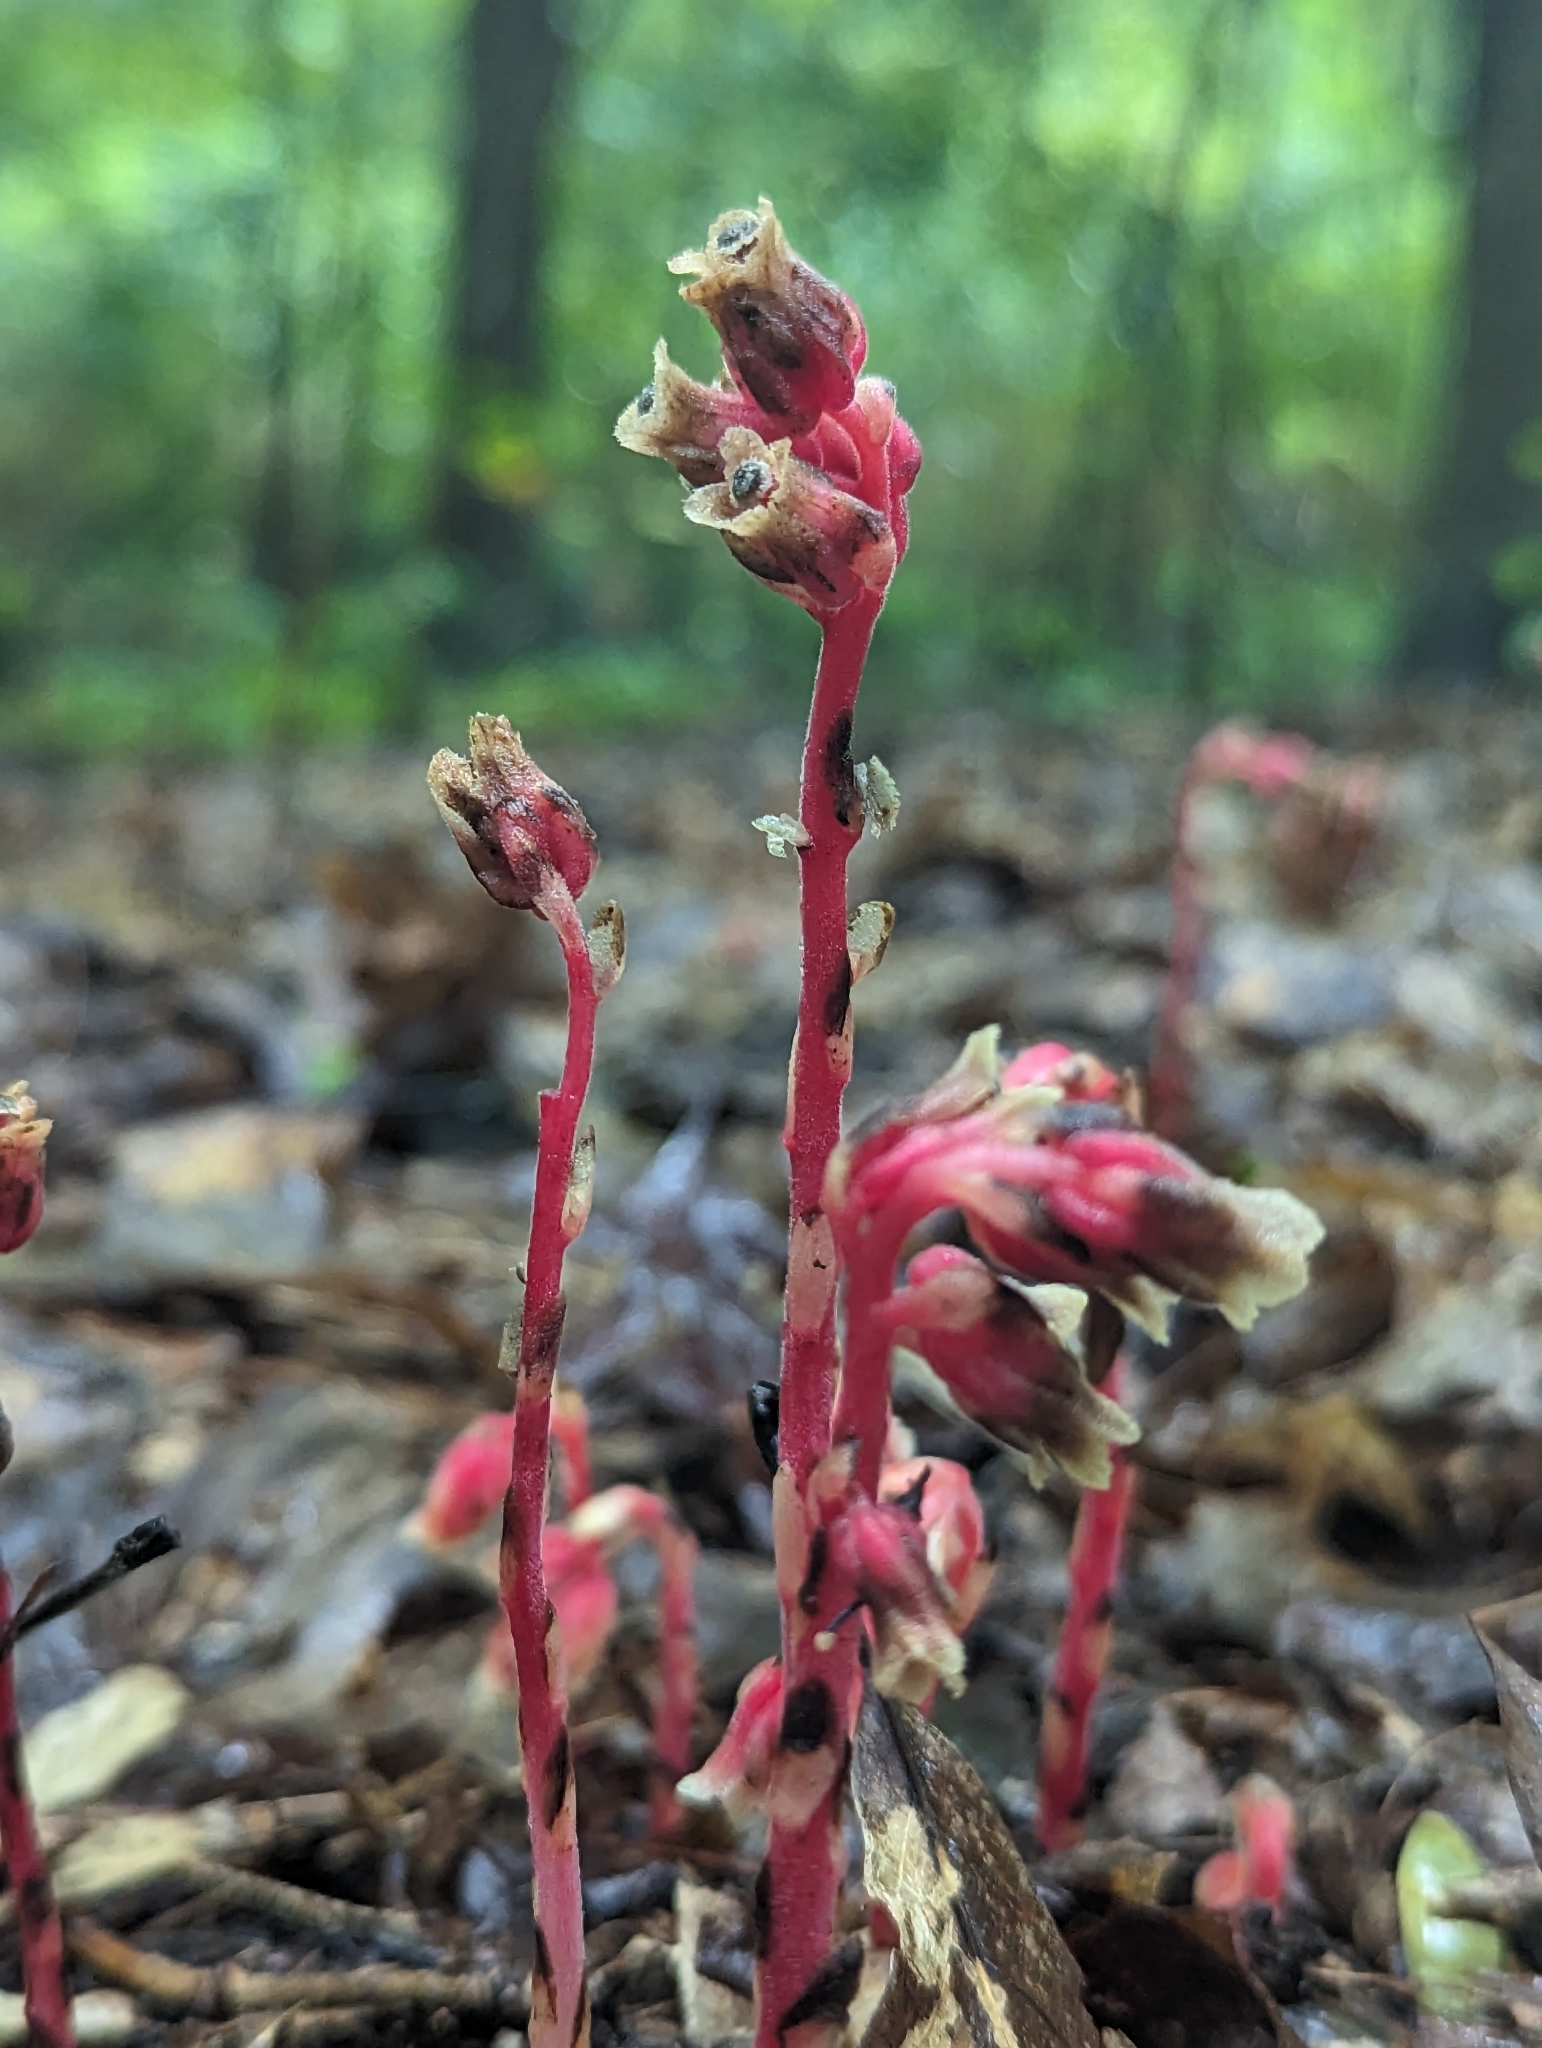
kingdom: Plantae
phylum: Tracheophyta
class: Magnoliopsida
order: Ericales
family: Ericaceae
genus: Hypopitys
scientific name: Hypopitys monotropa
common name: Yellow bird's-nest
